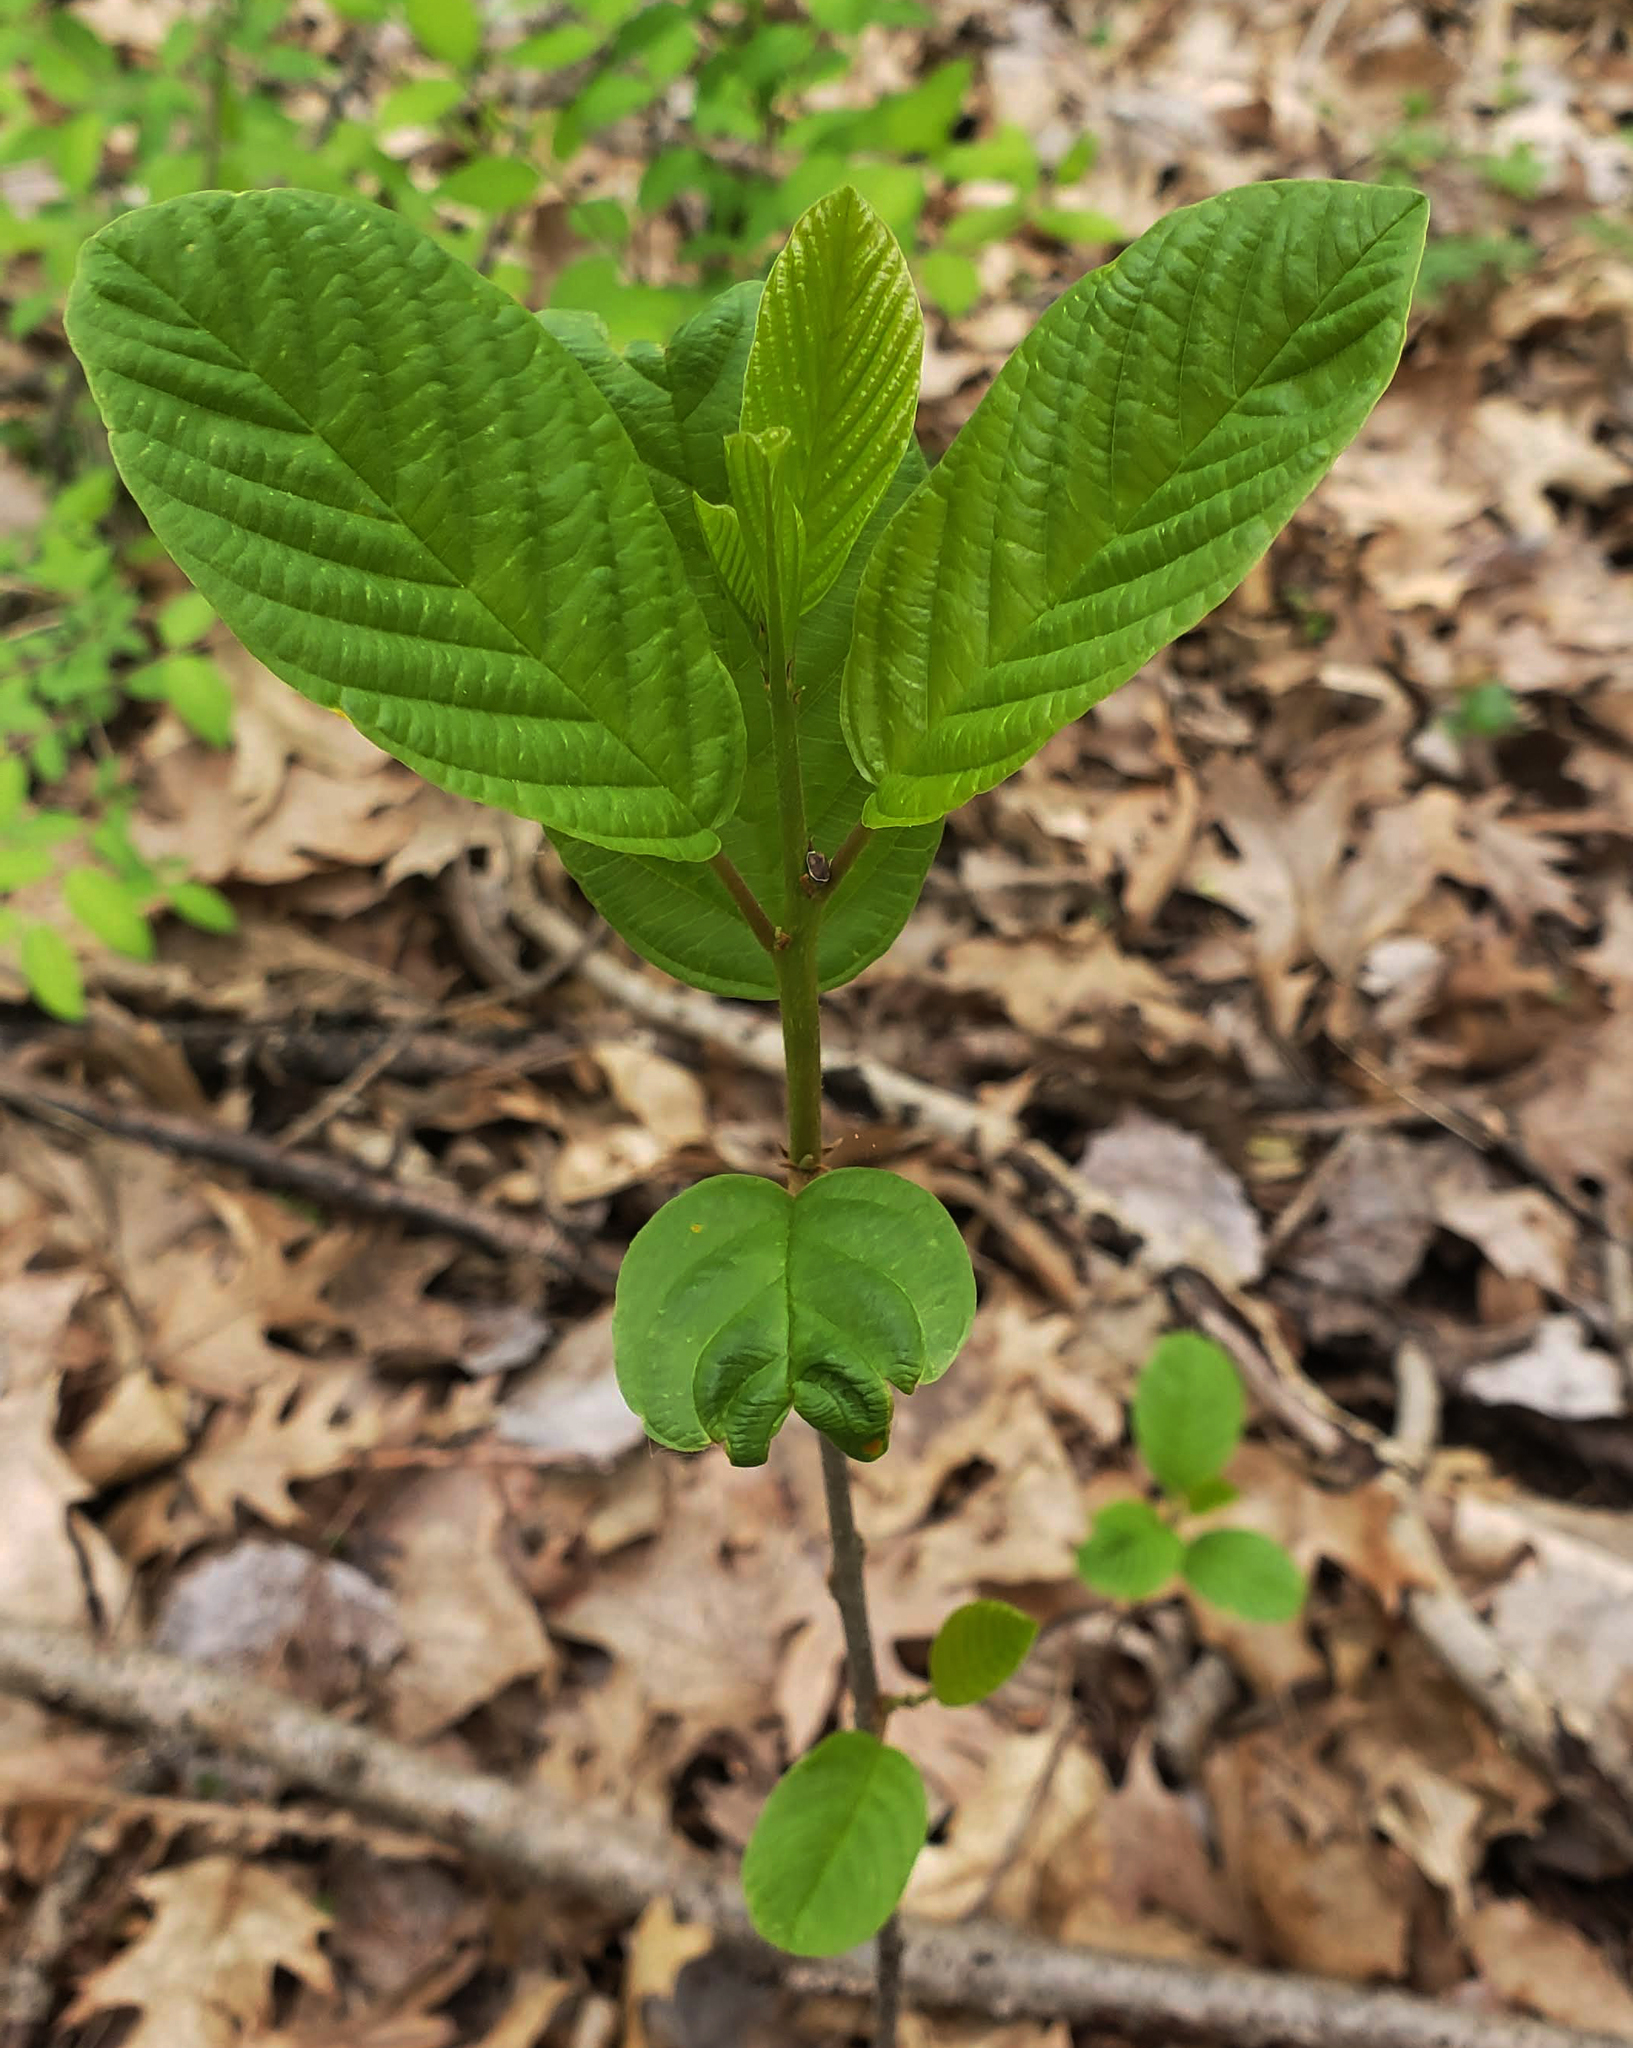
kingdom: Plantae
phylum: Tracheophyta
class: Magnoliopsida
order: Rosales
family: Rhamnaceae
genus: Frangula
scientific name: Frangula alnus
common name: Alder buckthorn
